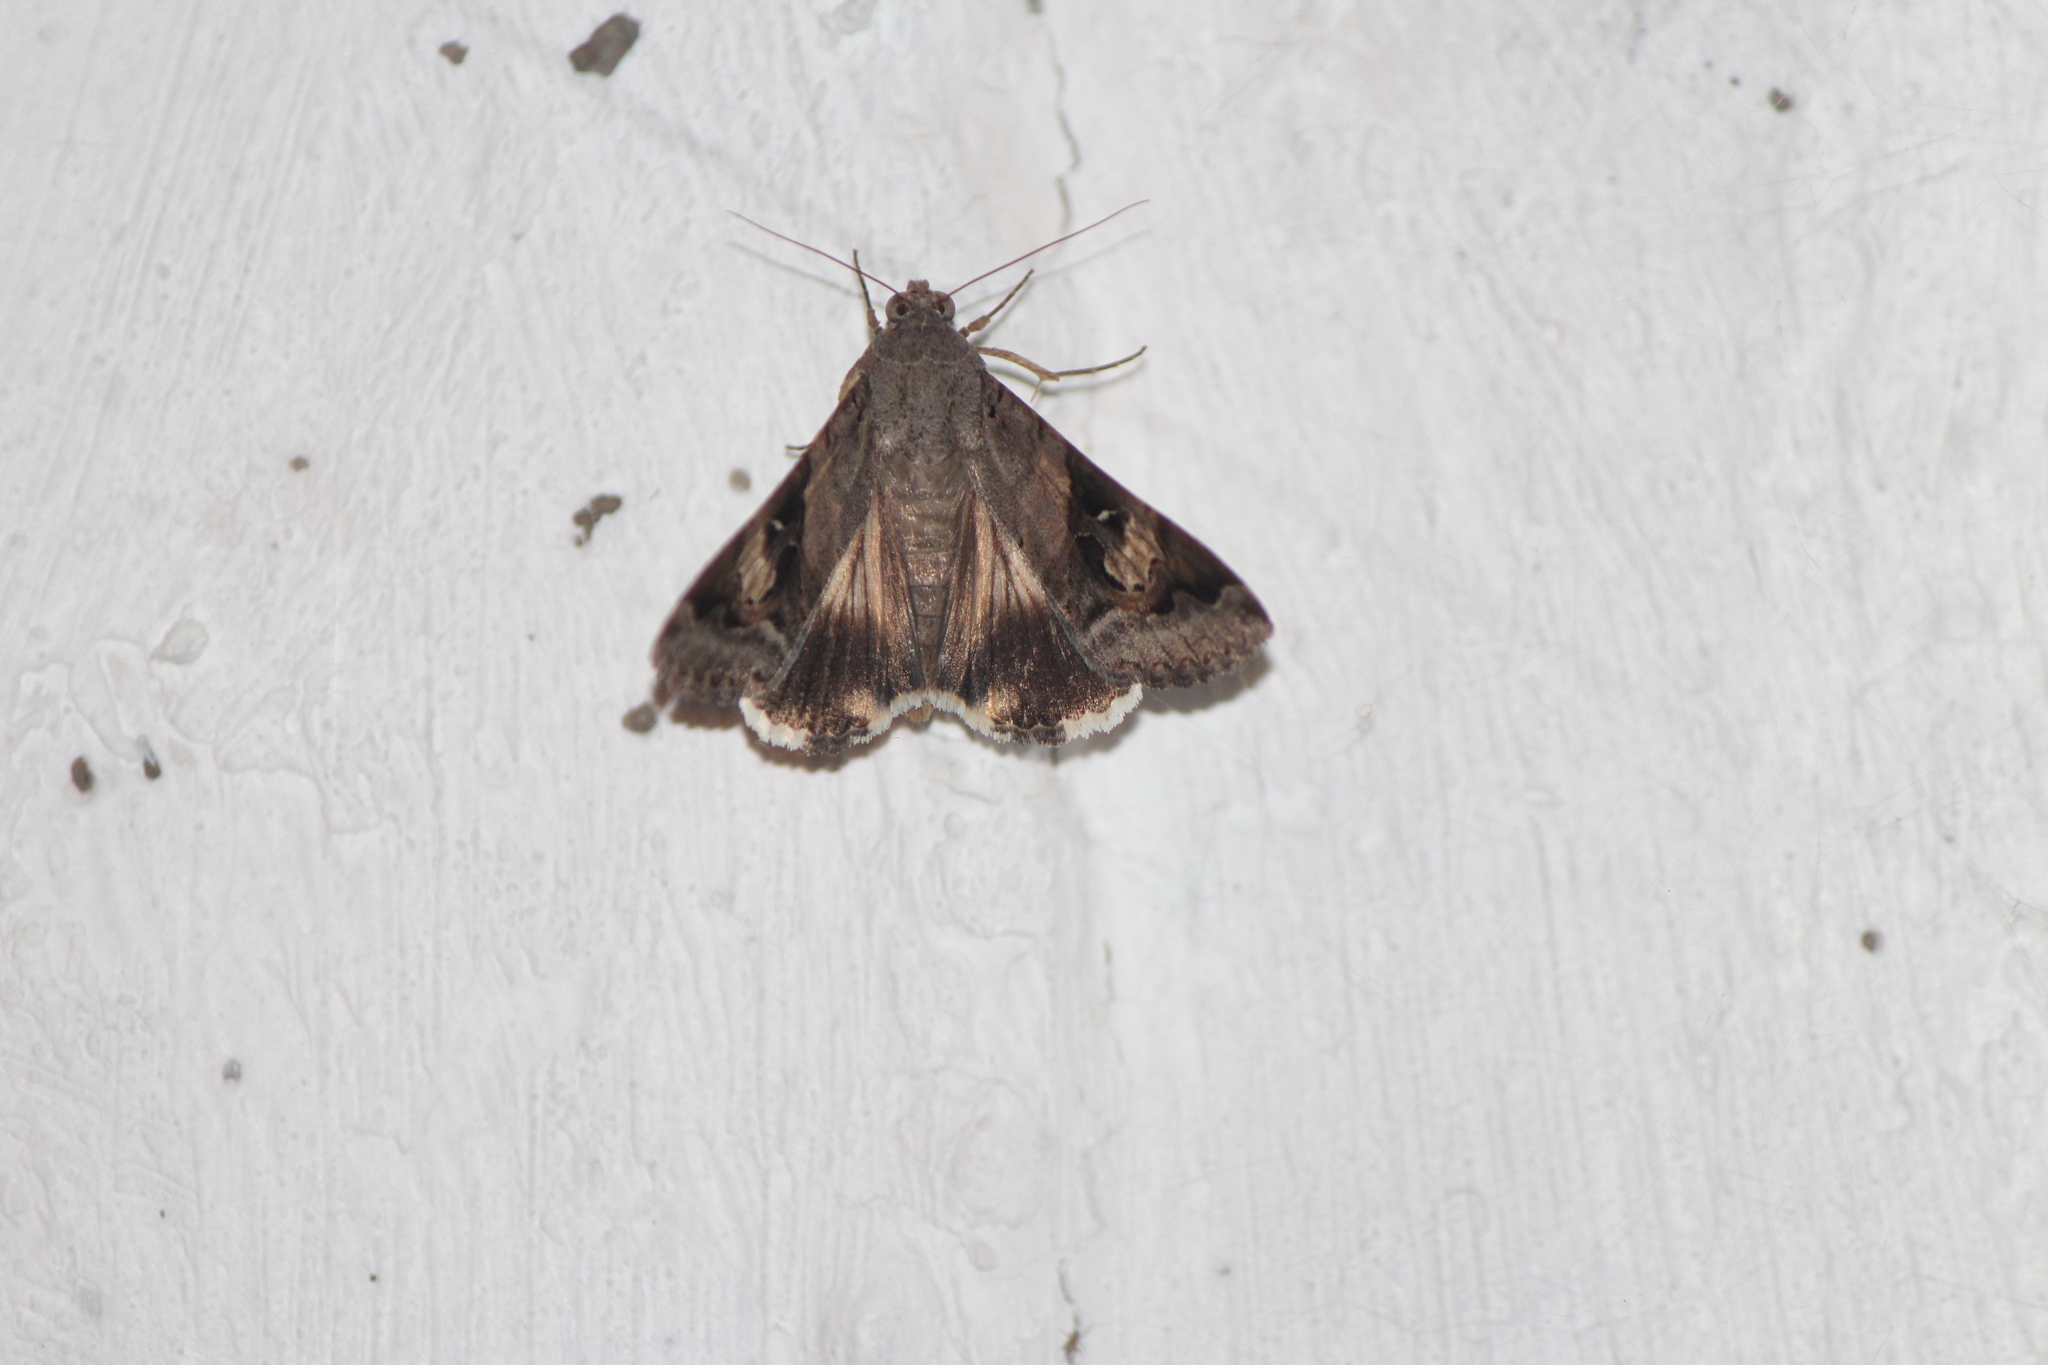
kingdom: Animalia
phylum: Arthropoda
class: Insecta
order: Lepidoptera
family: Erebidae
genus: Melipotis
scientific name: Melipotis indomita
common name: Moth
